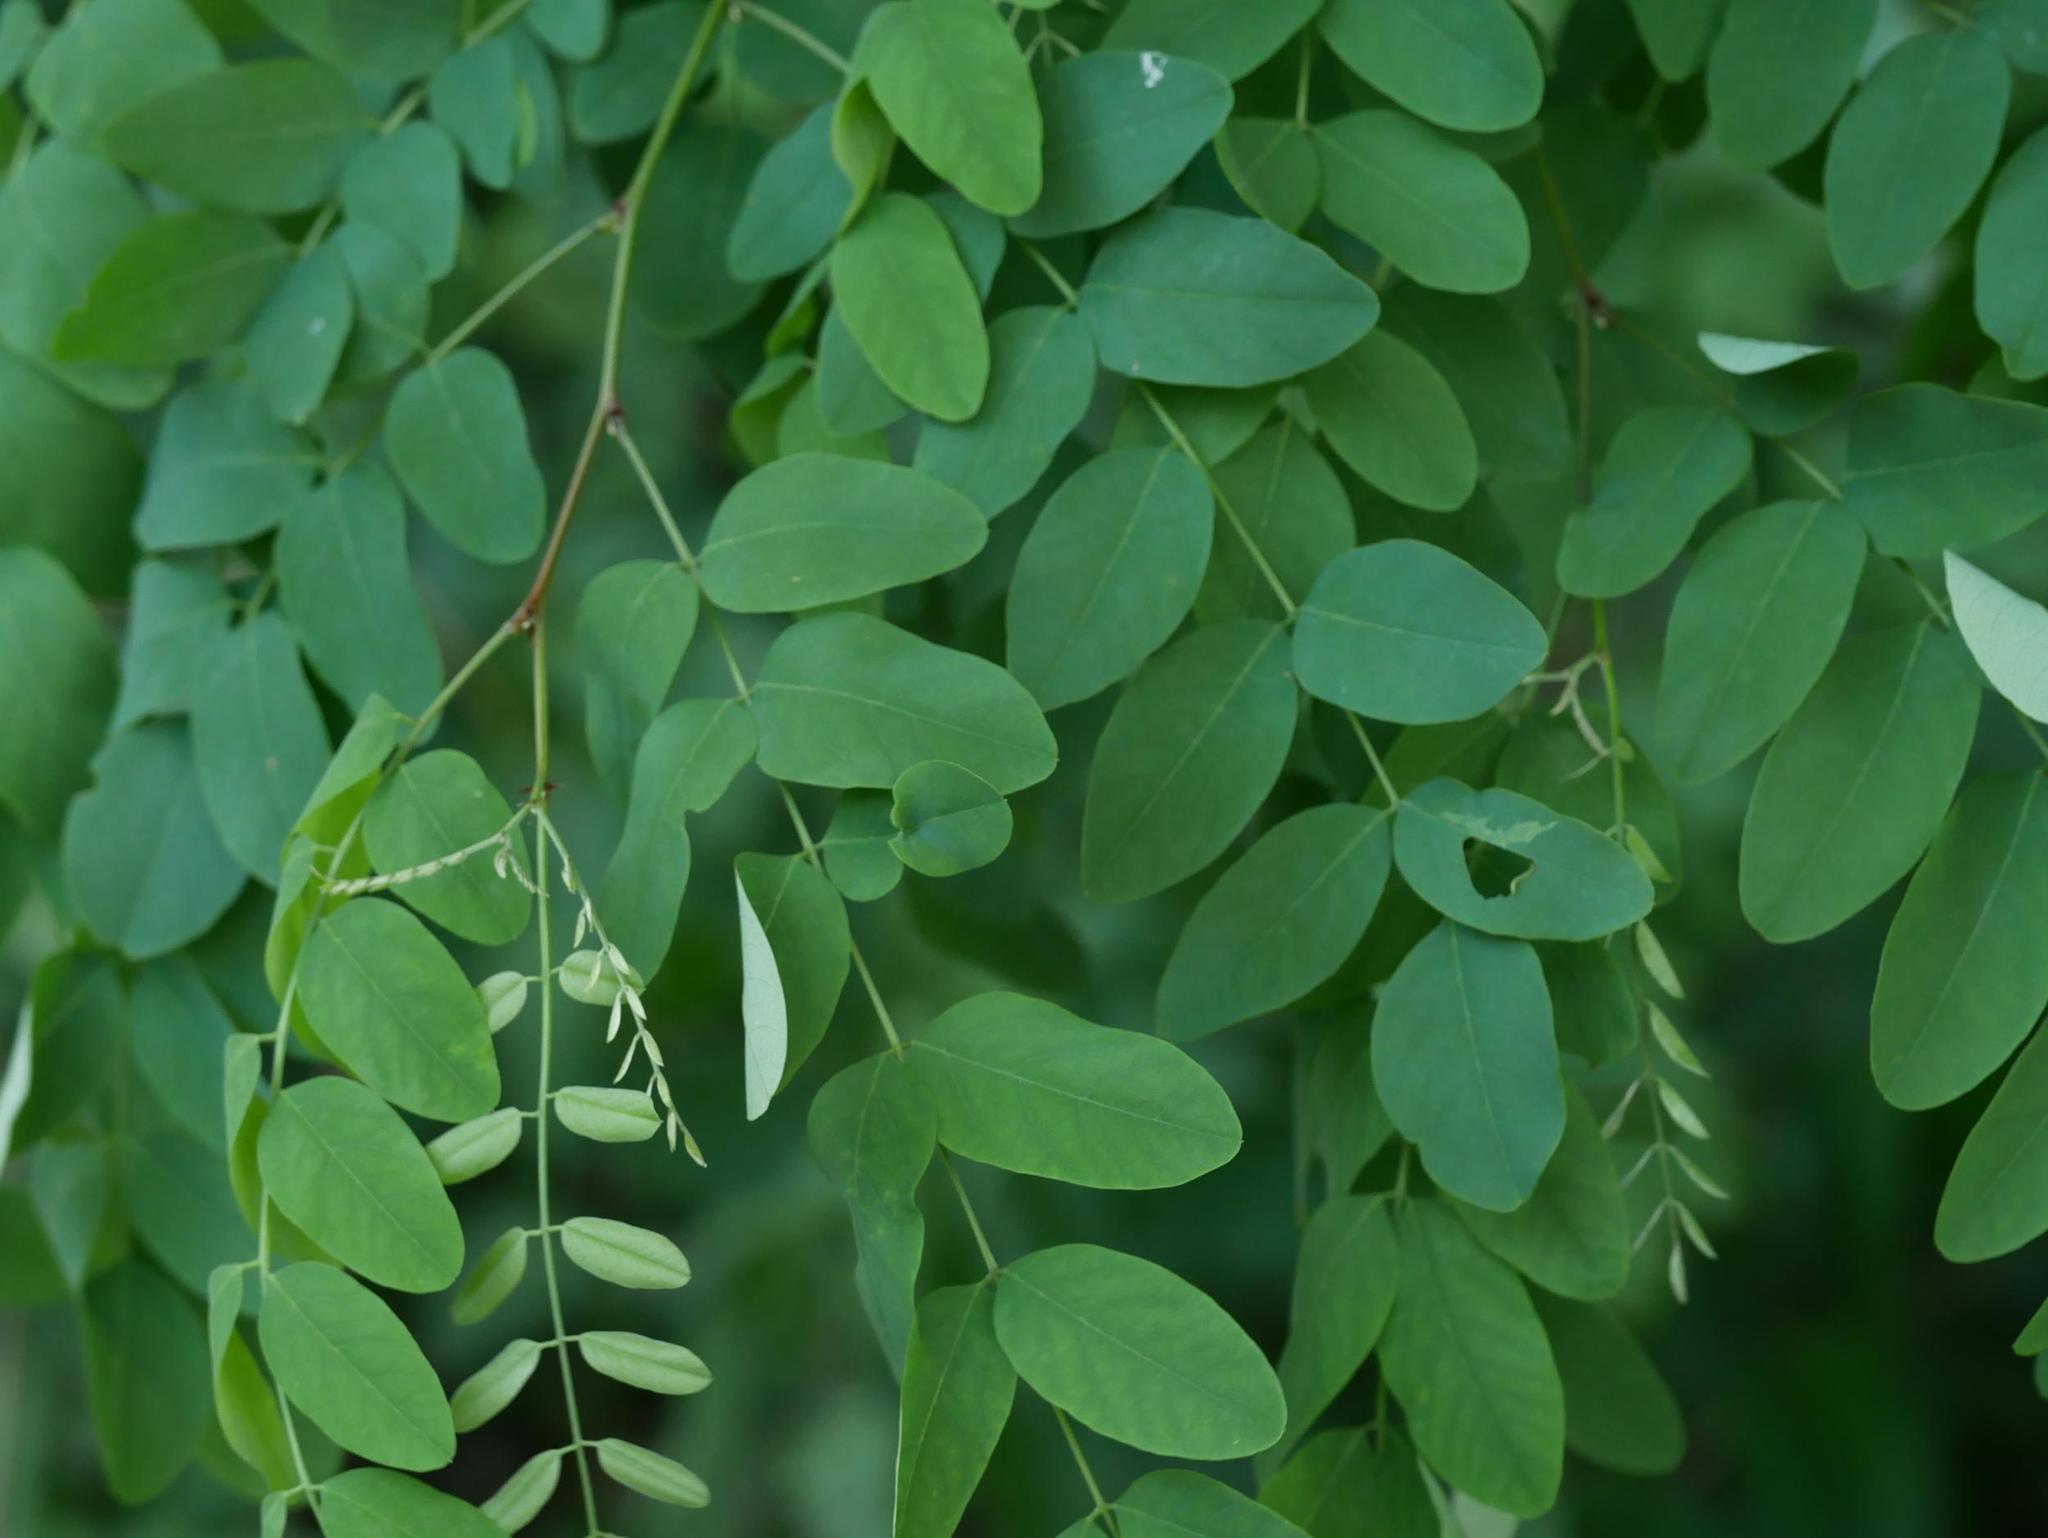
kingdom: Plantae
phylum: Tracheophyta
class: Magnoliopsida
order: Fabales
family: Fabaceae
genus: Robinia
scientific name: Robinia pseudoacacia
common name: Black locust
